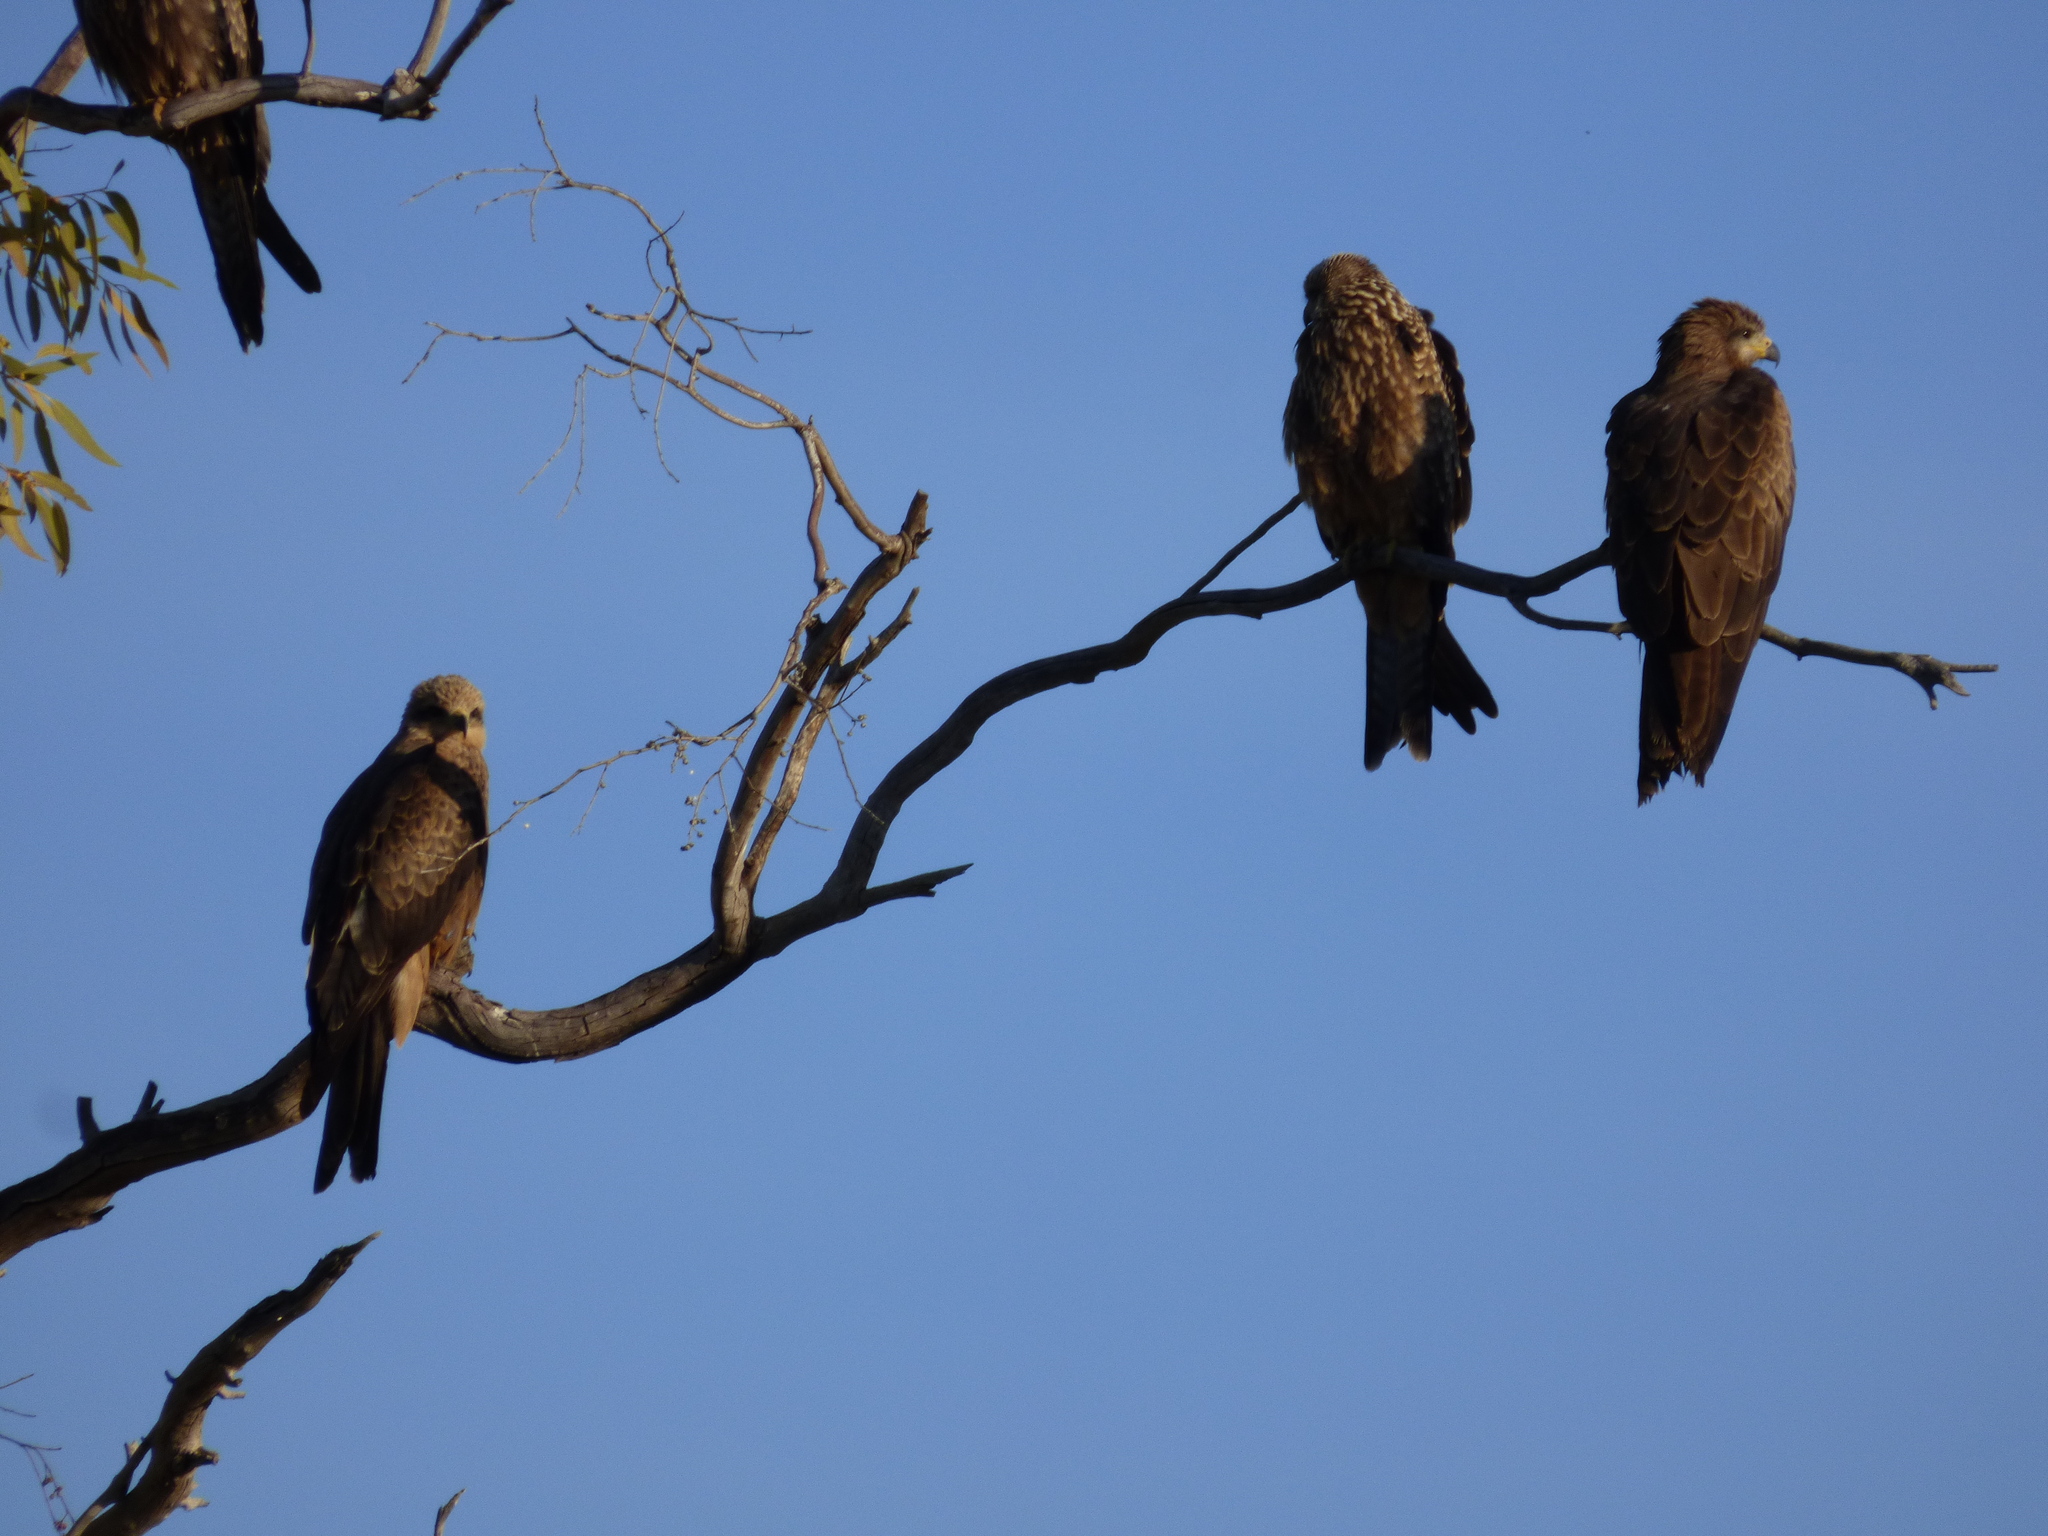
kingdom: Animalia
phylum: Chordata
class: Aves
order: Accipitriformes
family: Accipitridae
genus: Milvus
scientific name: Milvus migrans
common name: Black kite
